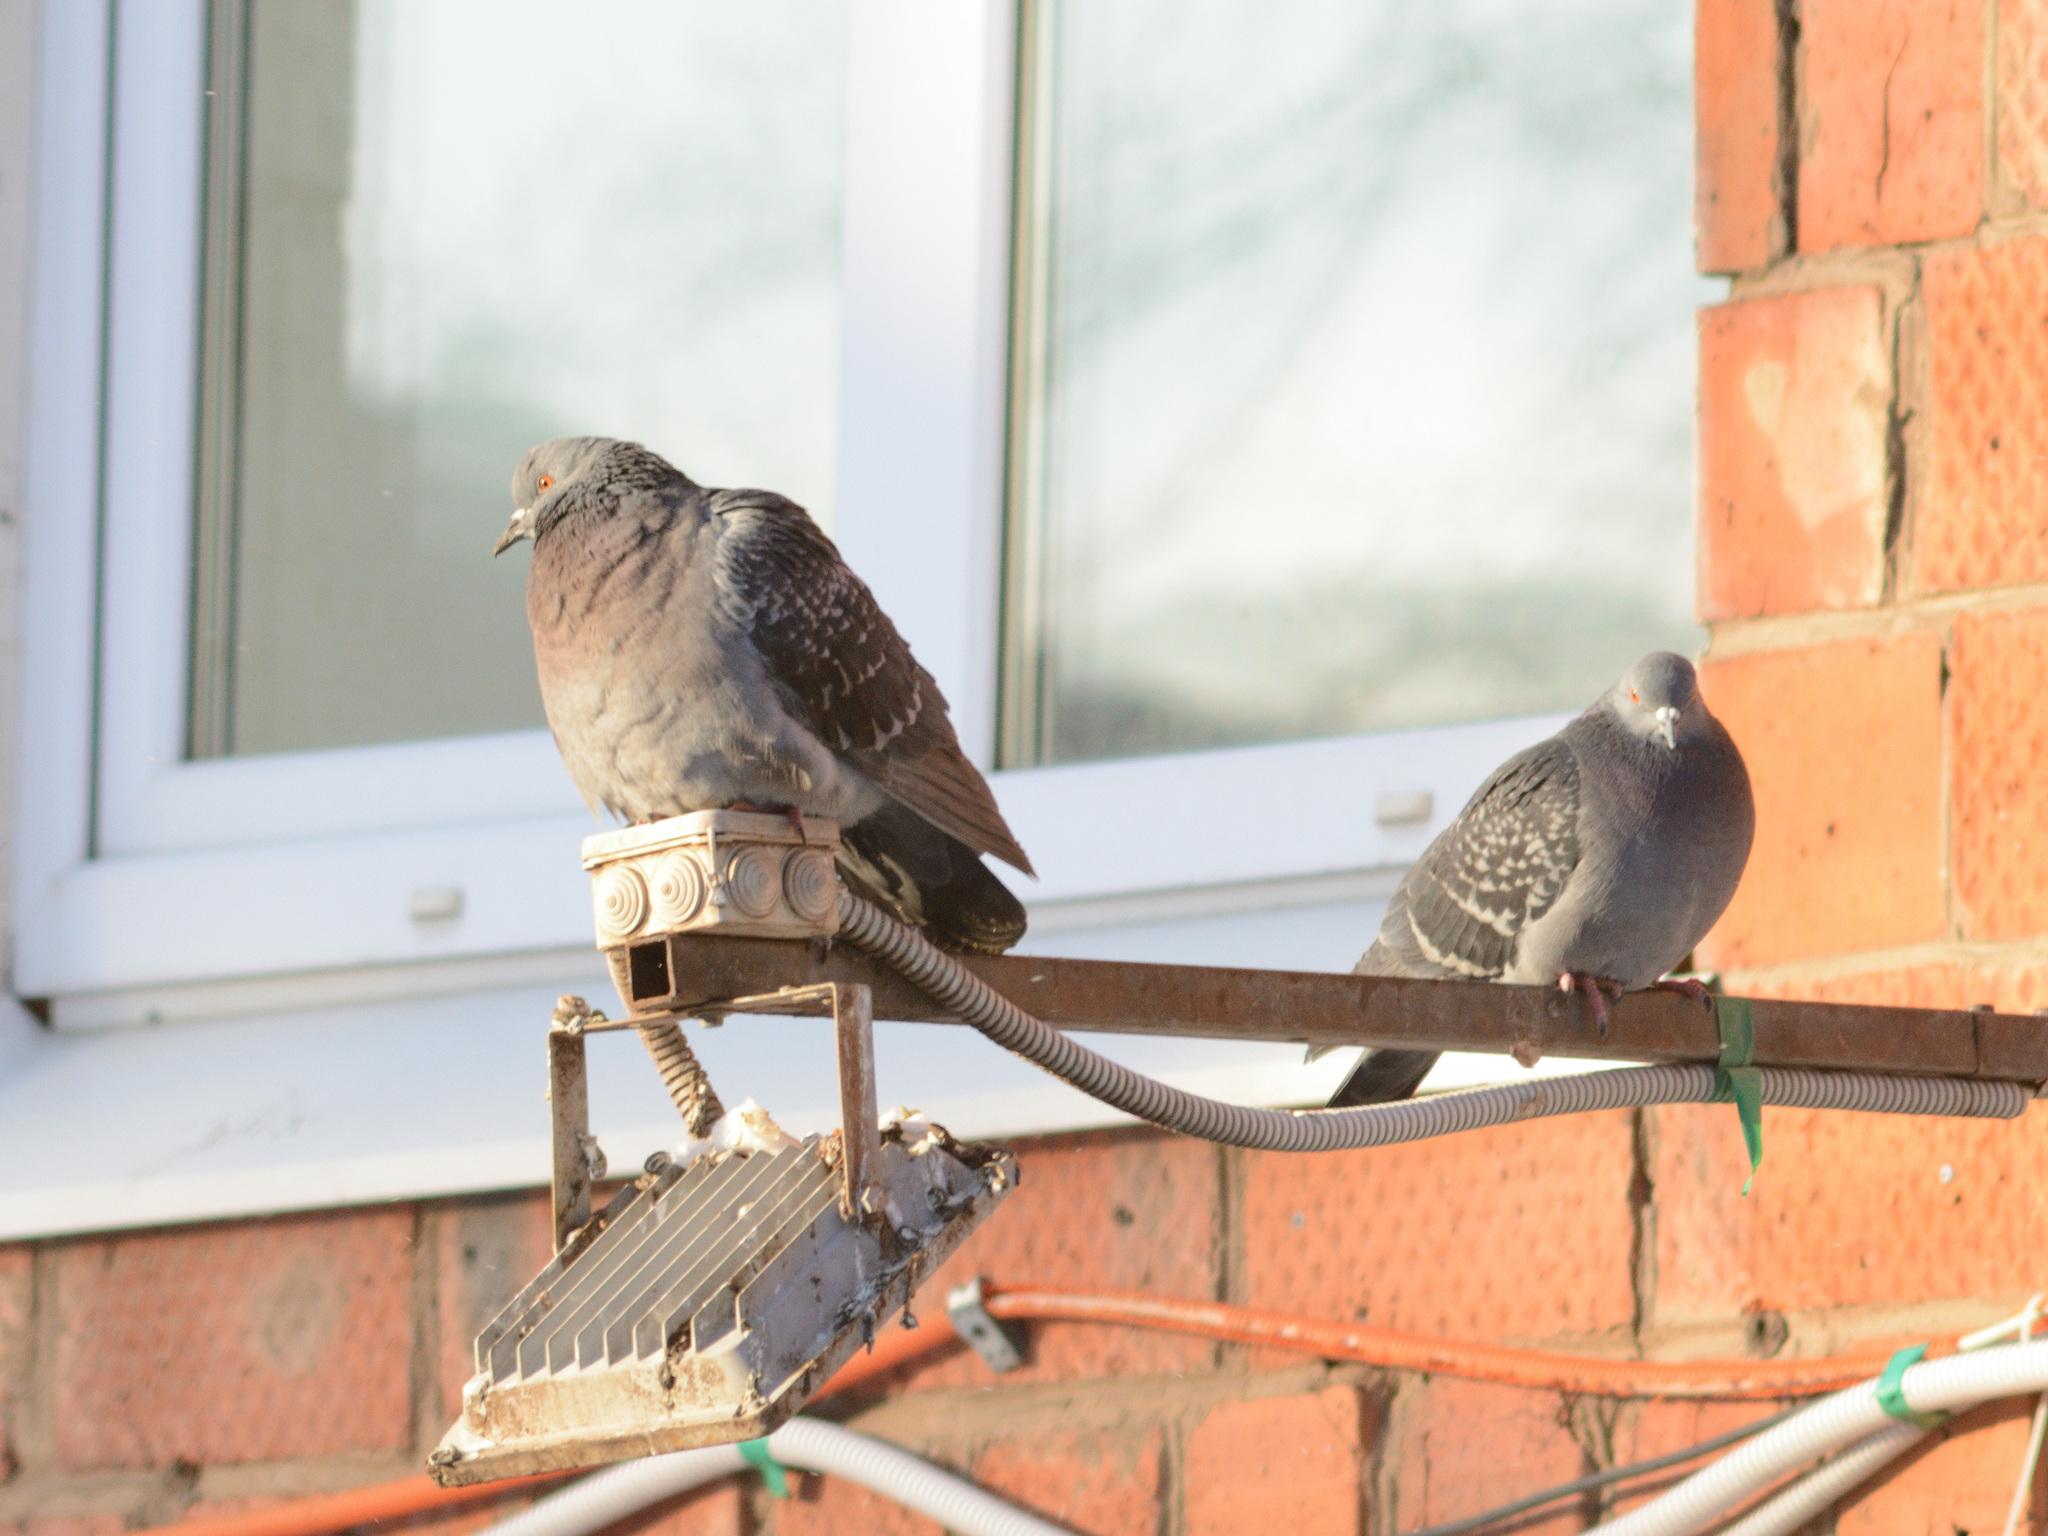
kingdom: Animalia
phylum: Chordata
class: Aves
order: Columbiformes
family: Columbidae
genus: Columba
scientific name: Columba livia
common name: Rock pigeon
